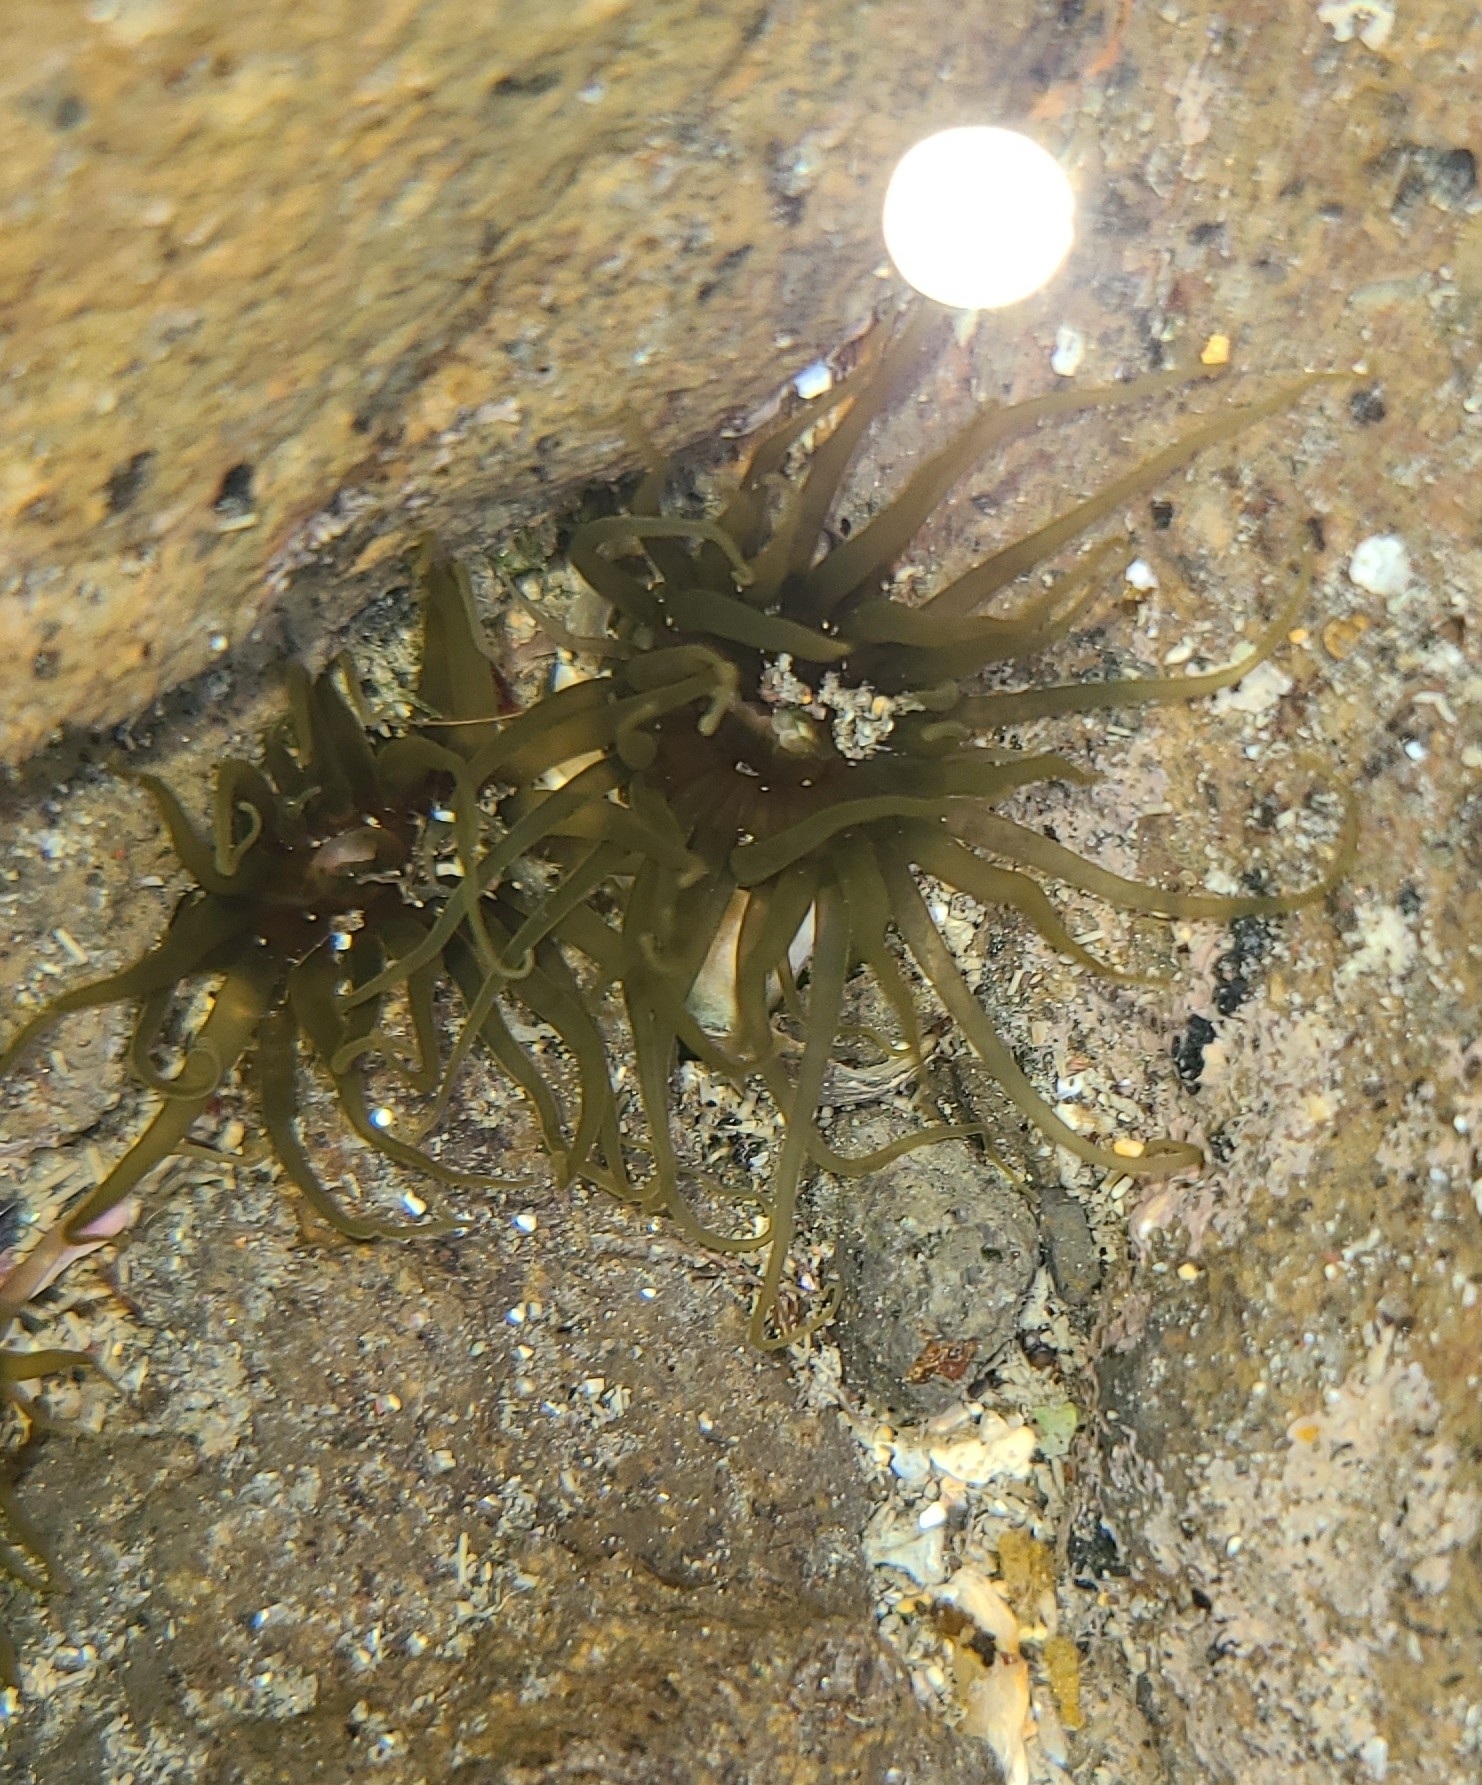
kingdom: Animalia
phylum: Cnidaria
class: Anthozoa
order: Actiniaria
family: Actiniidae
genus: Isactinia
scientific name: Isactinia olivacea
